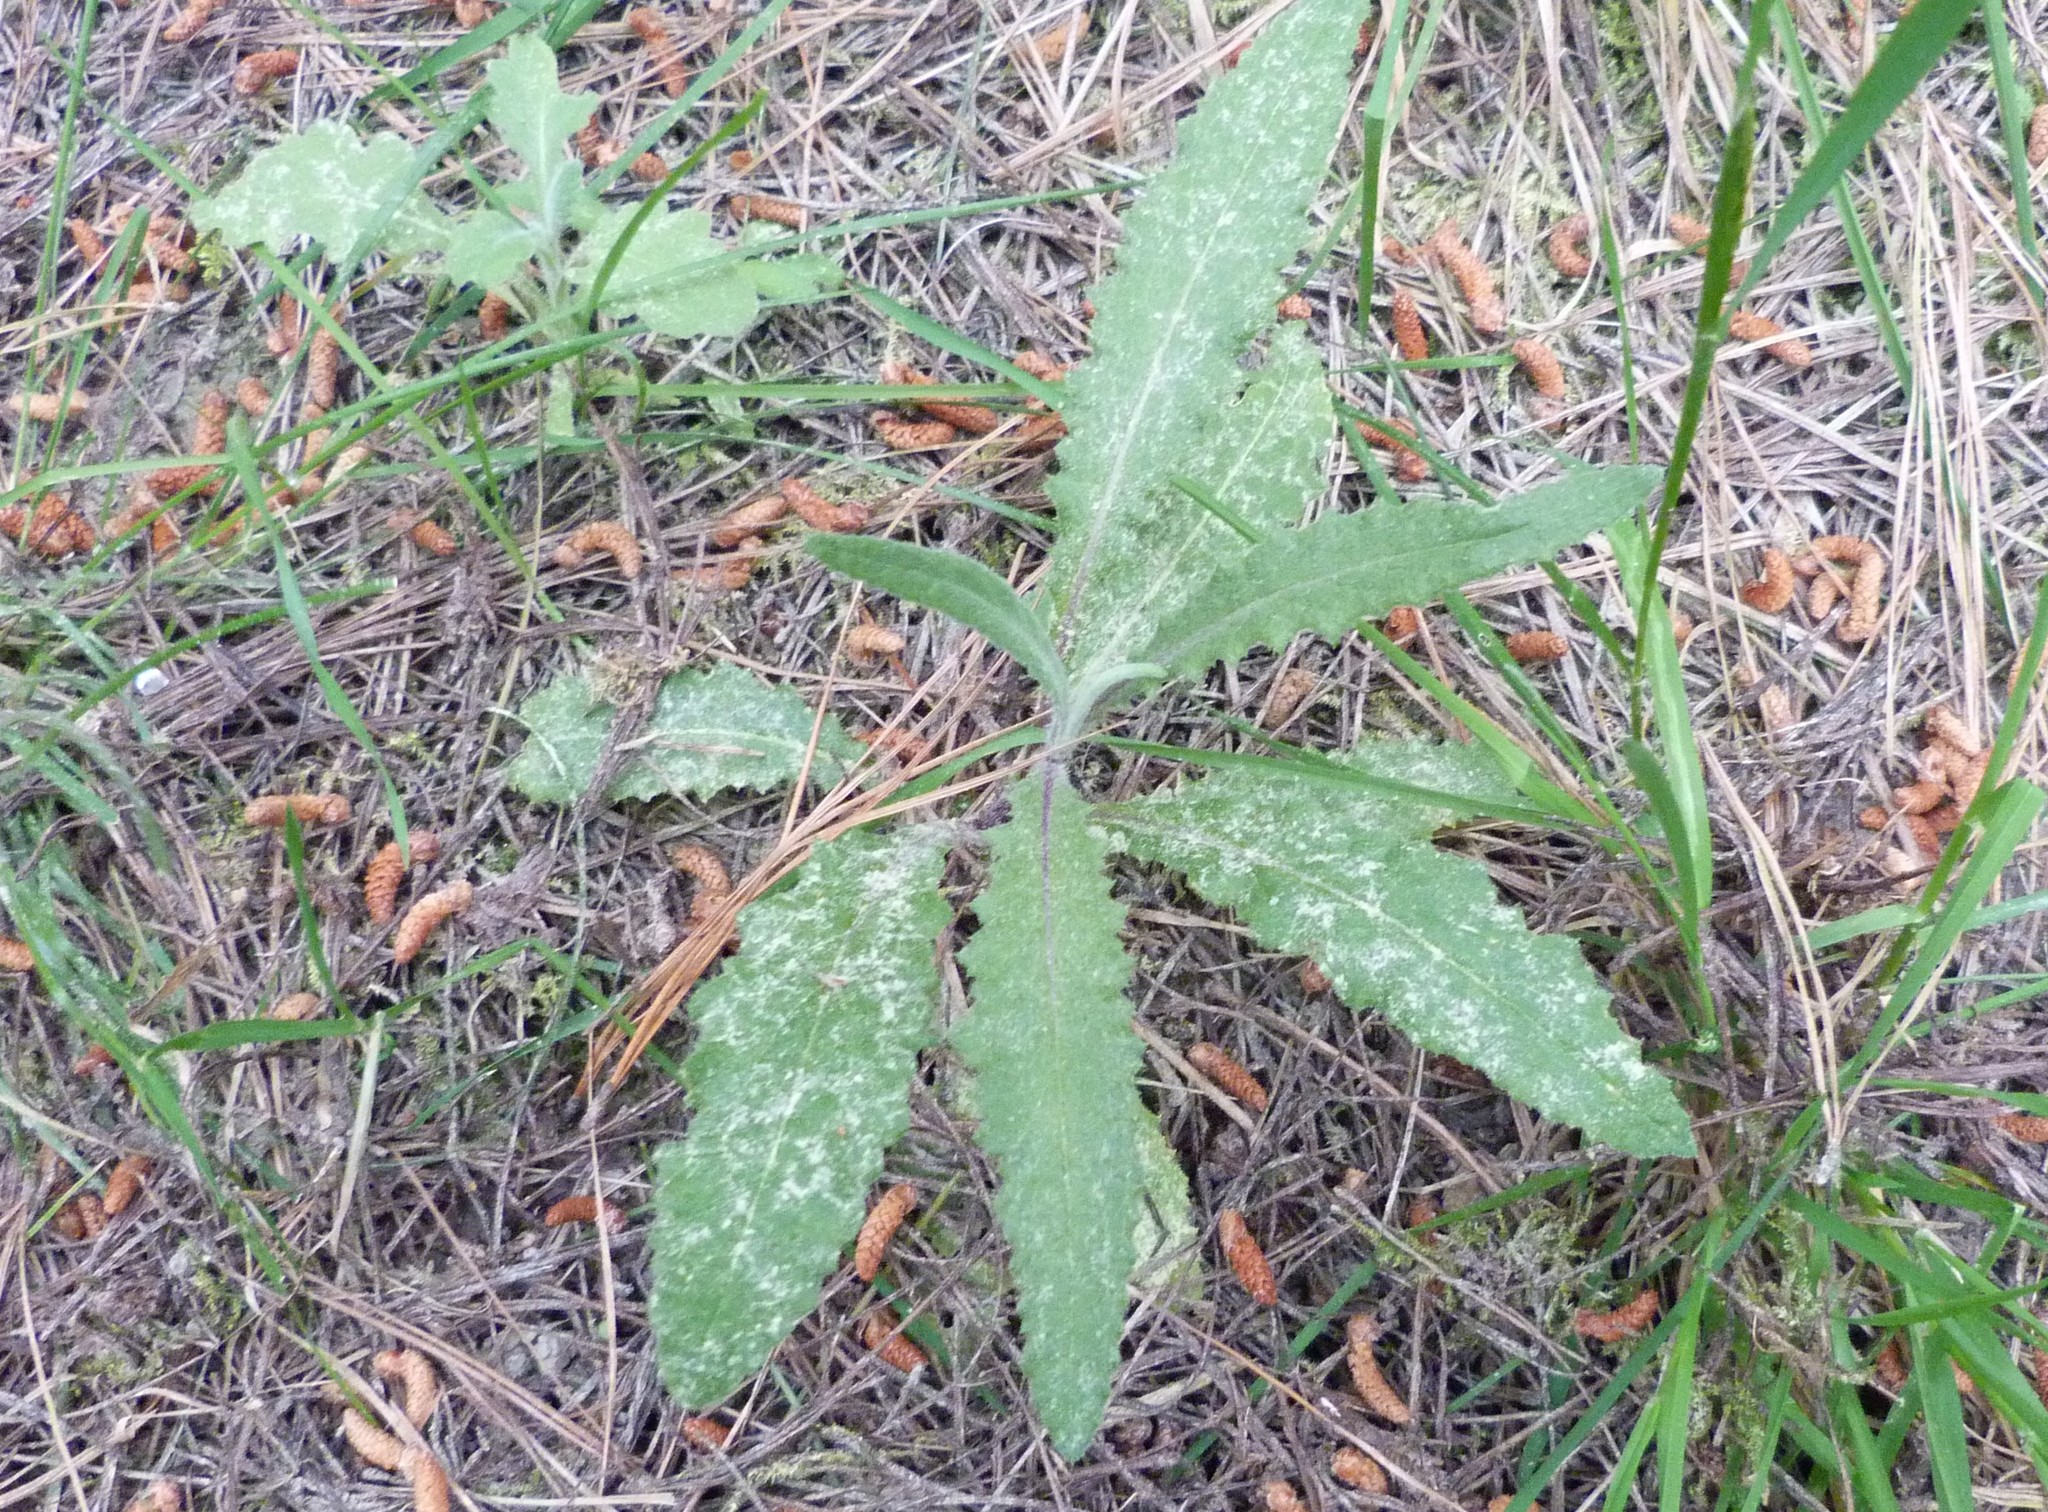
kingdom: Plantae
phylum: Tracheophyta
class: Magnoliopsida
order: Asterales
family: Asteraceae
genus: Senecio
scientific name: Senecio minimus
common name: Toothed fireweed
